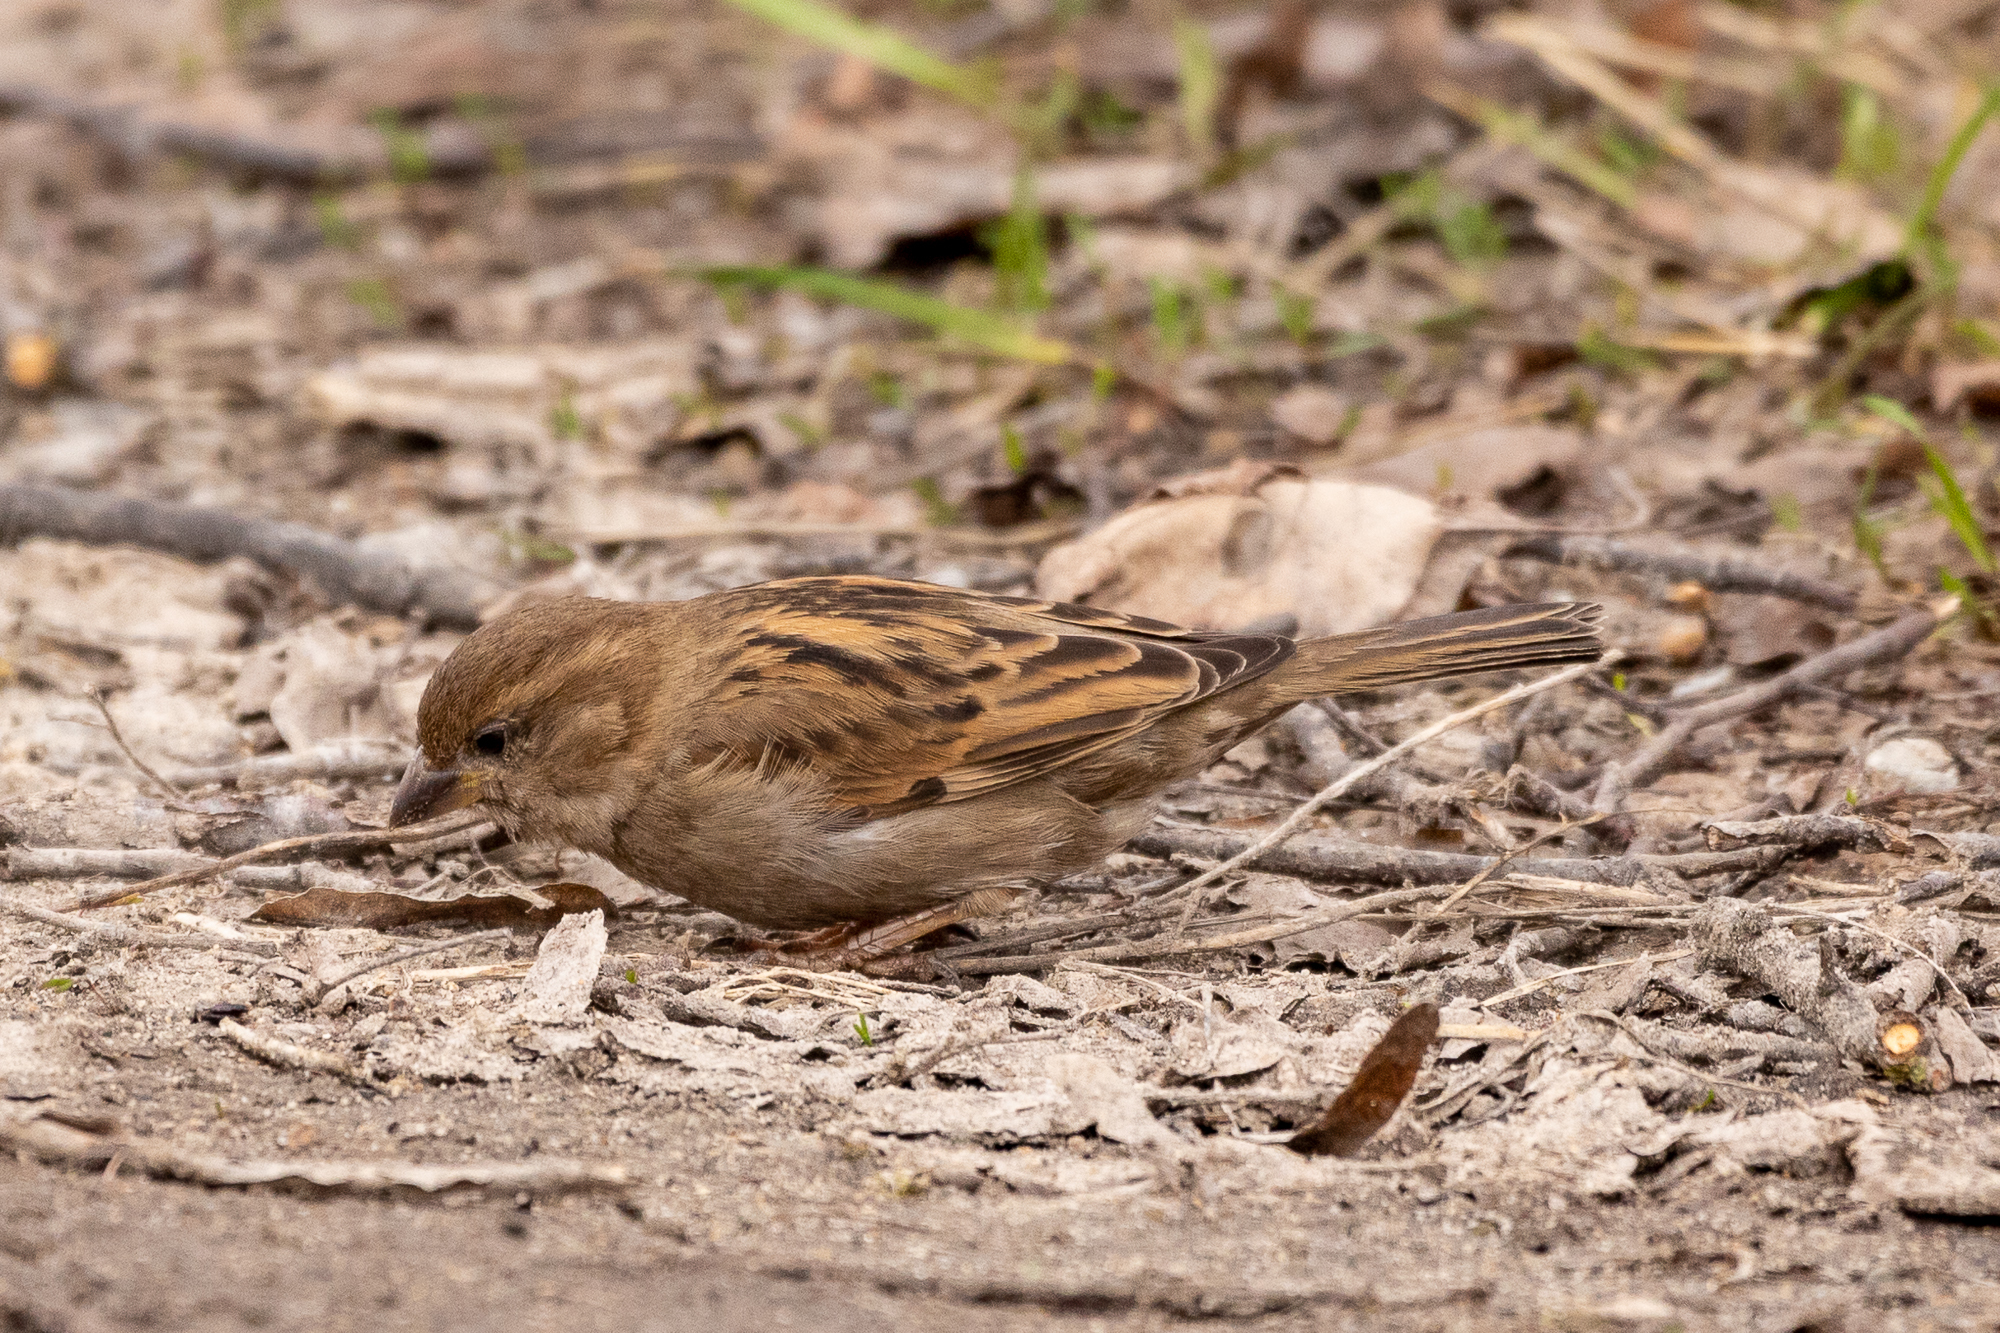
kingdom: Animalia
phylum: Chordata
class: Aves
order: Passeriformes
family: Passeridae
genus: Passer
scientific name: Passer domesticus
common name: House sparrow
